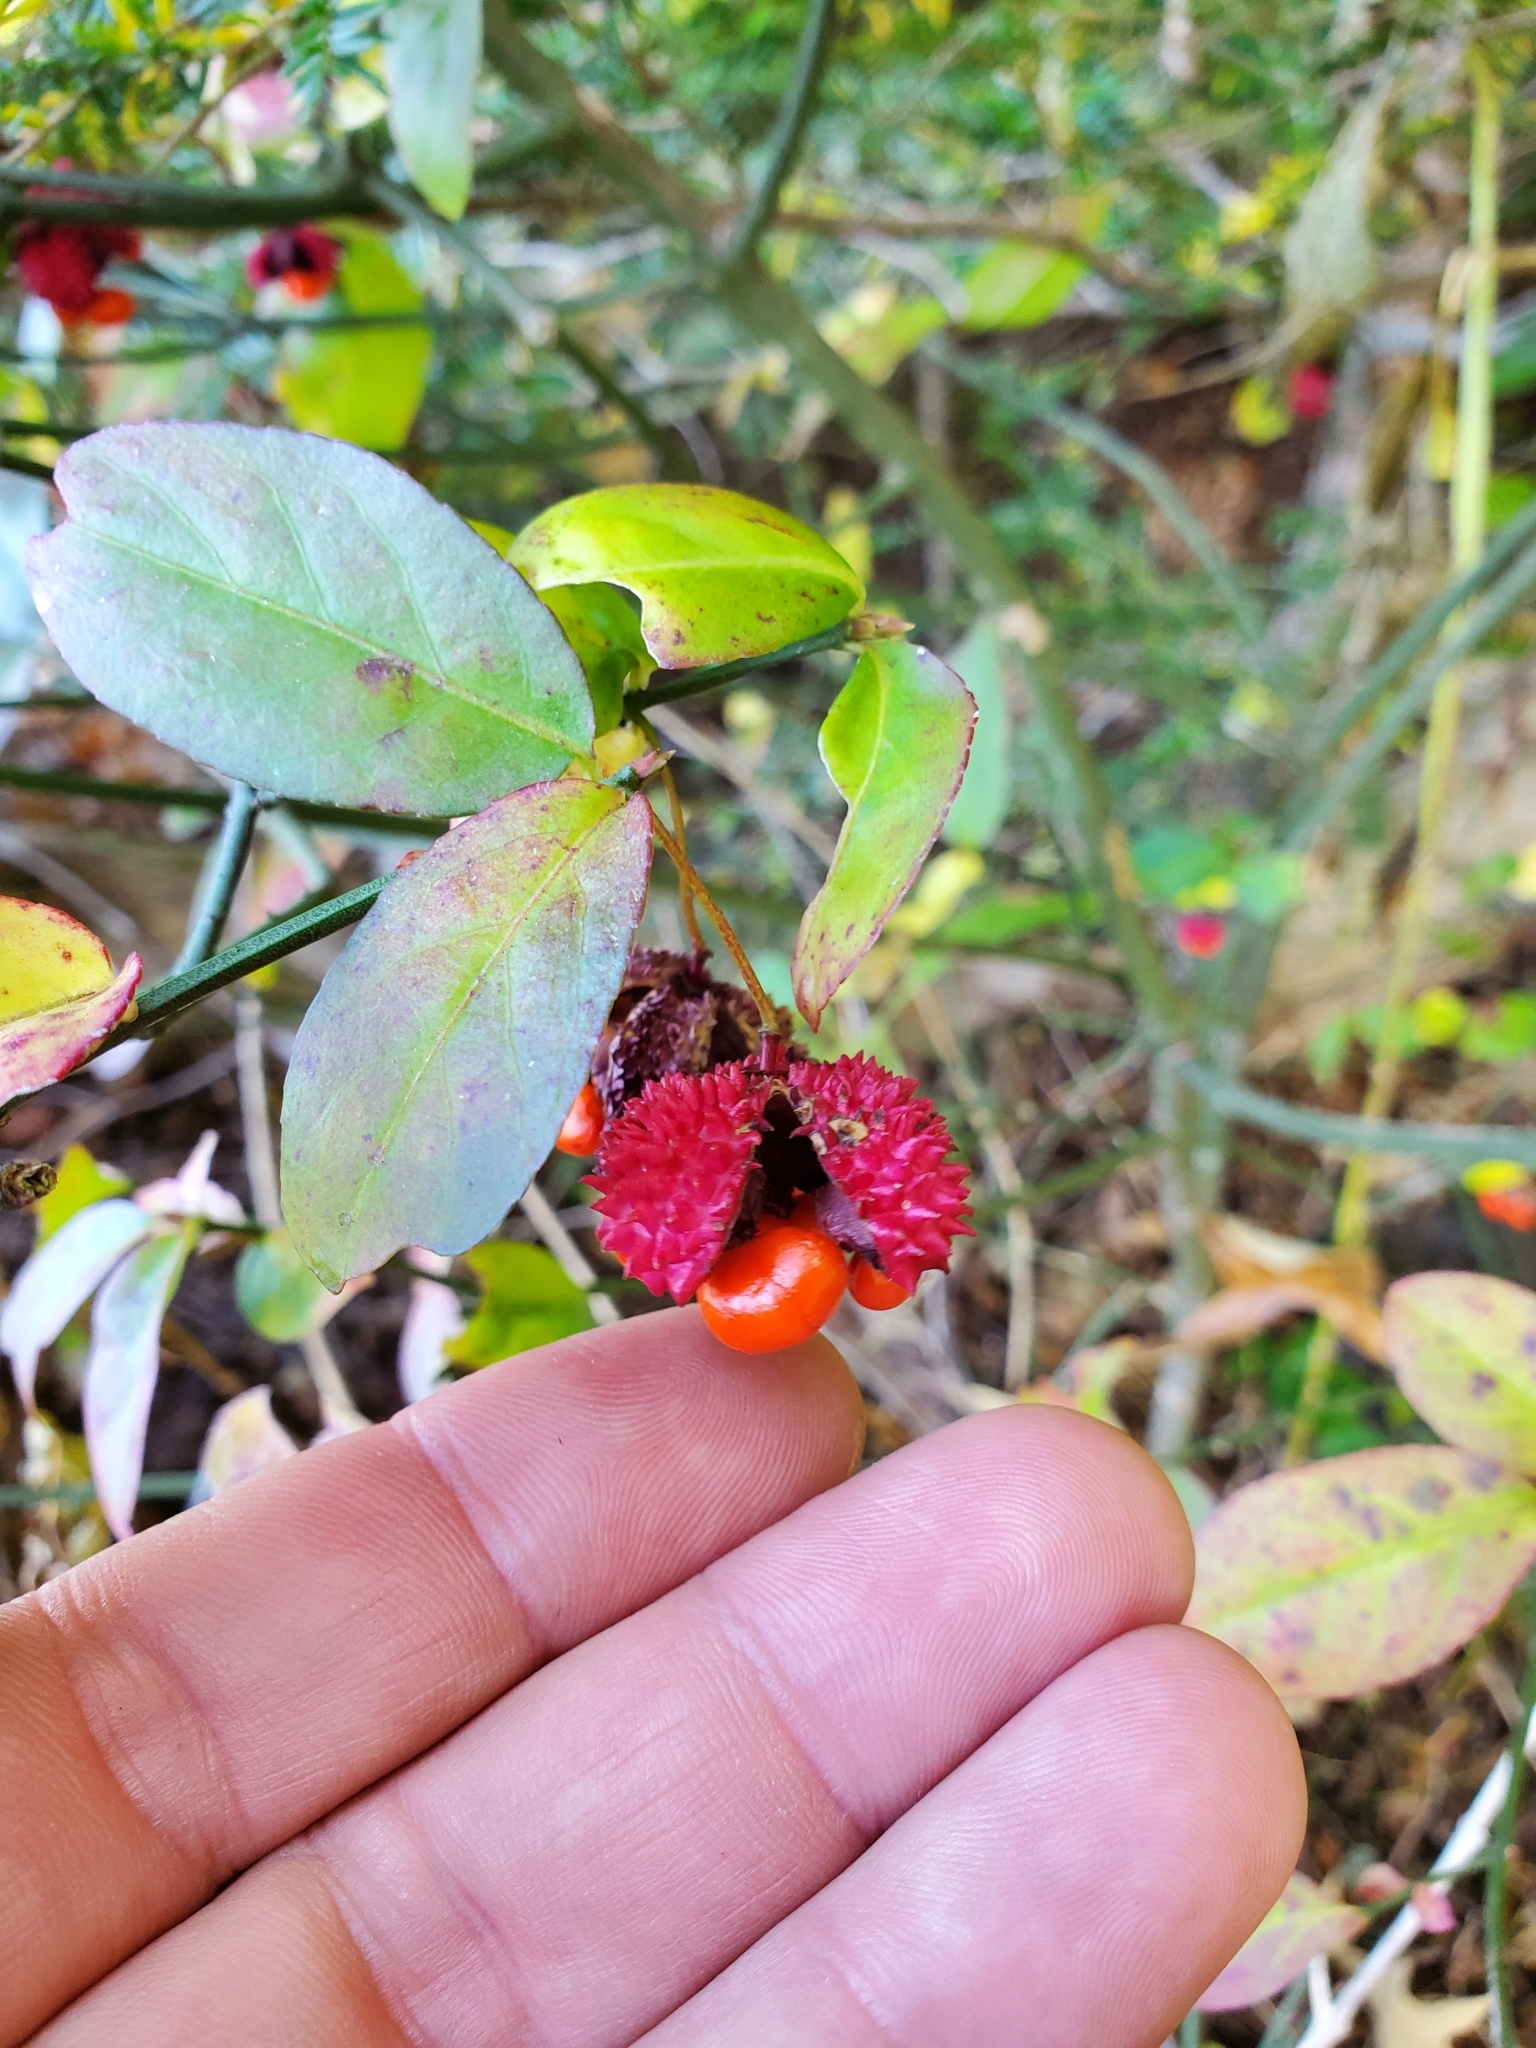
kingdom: Plantae
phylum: Tracheophyta
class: Magnoliopsida
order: Celastrales
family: Celastraceae
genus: Euonymus
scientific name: Euonymus americanus
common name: Bursting-heart
